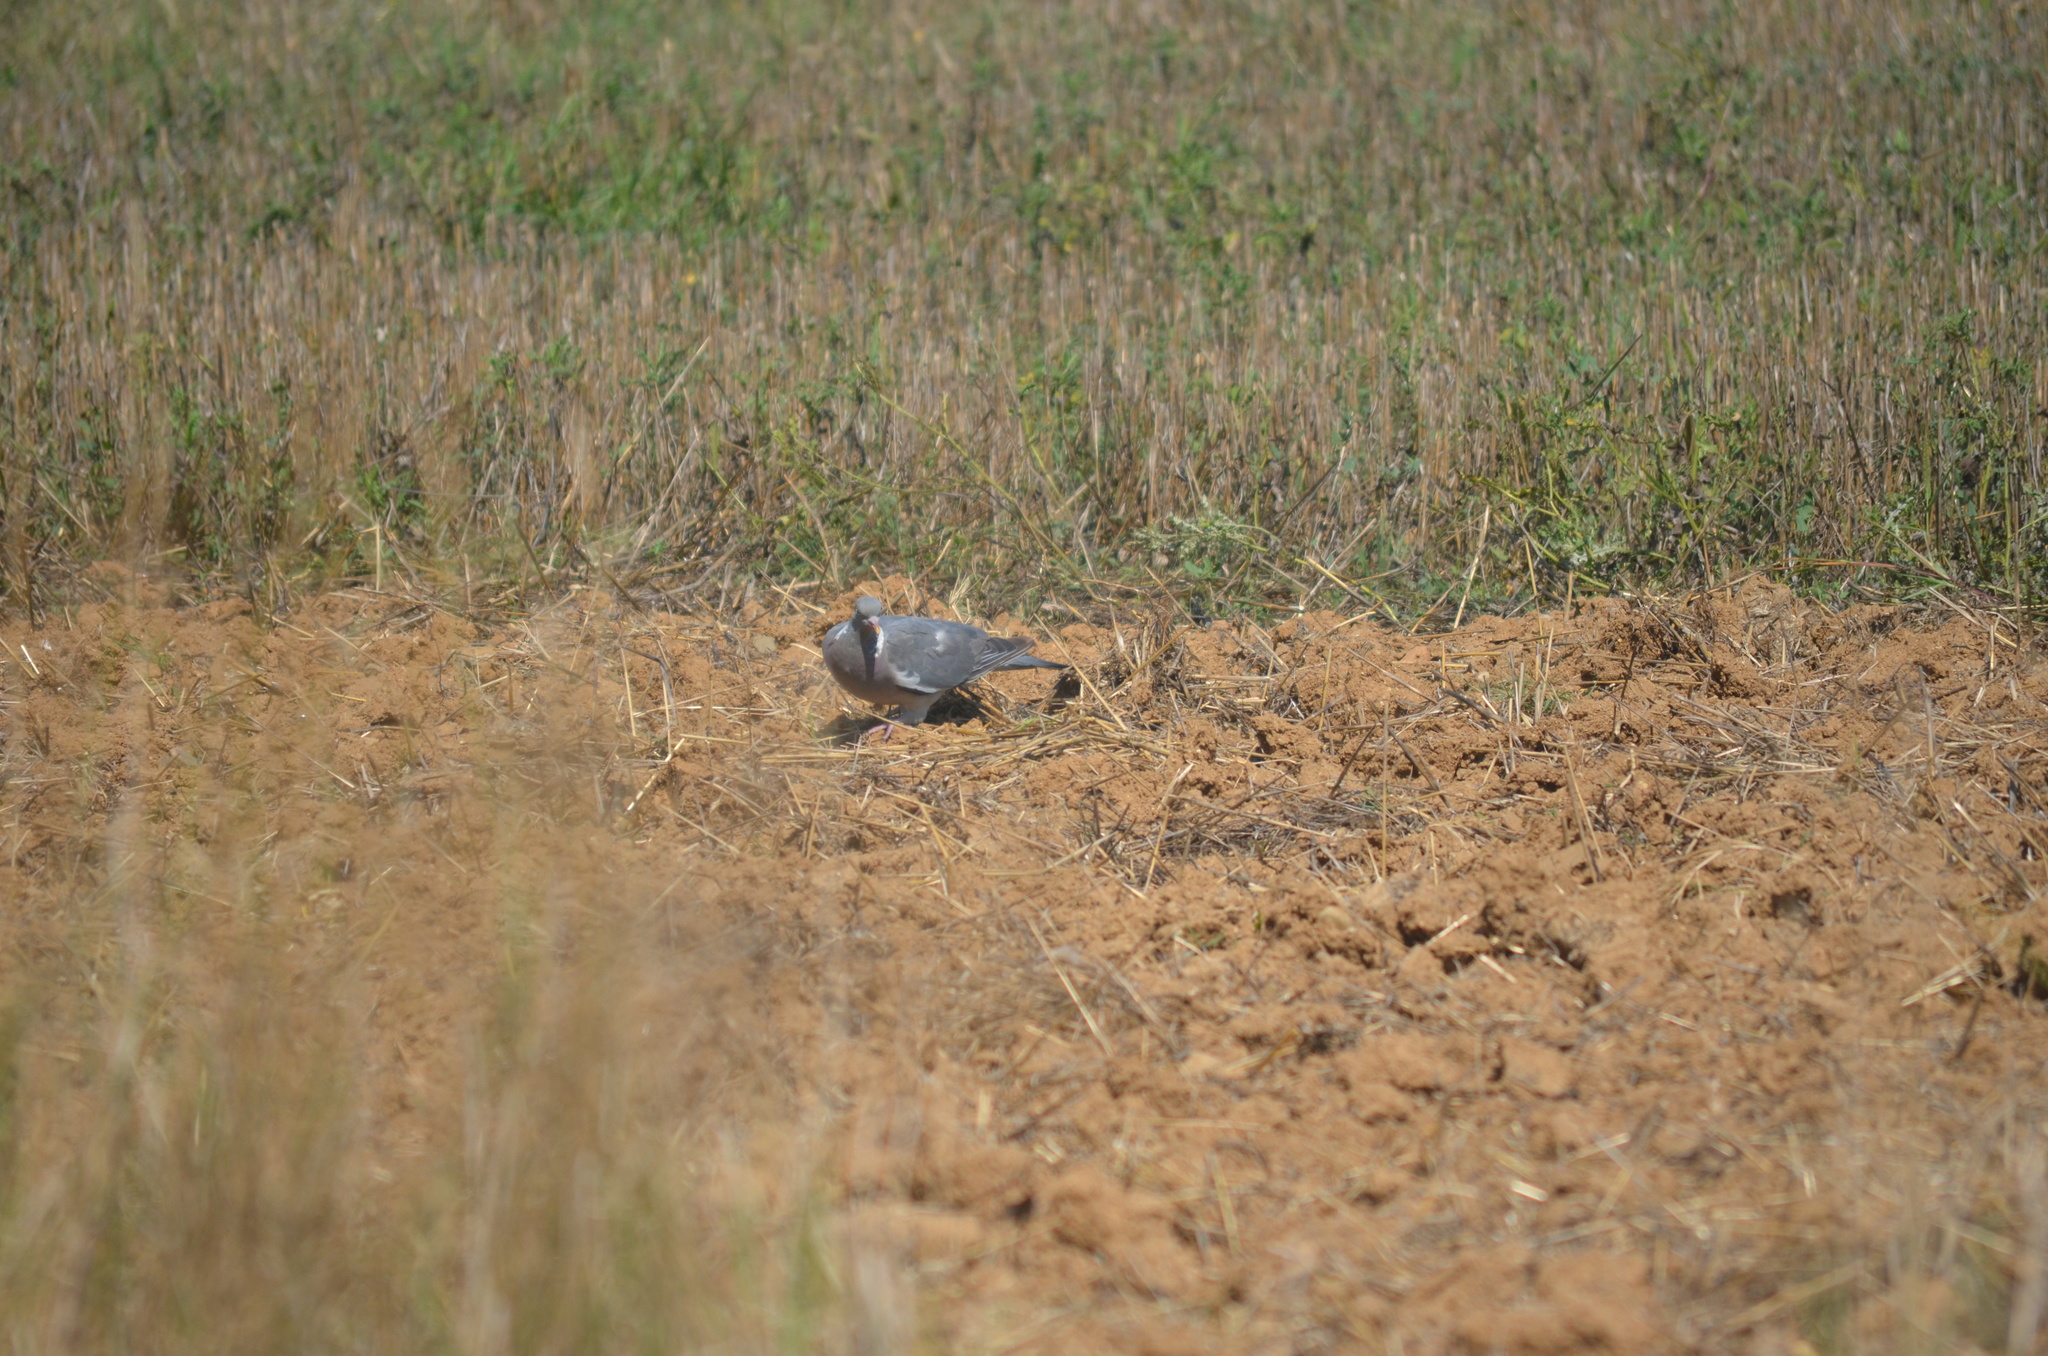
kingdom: Animalia
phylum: Chordata
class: Aves
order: Columbiformes
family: Columbidae
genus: Columba
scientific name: Columba palumbus
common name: Common wood pigeon
